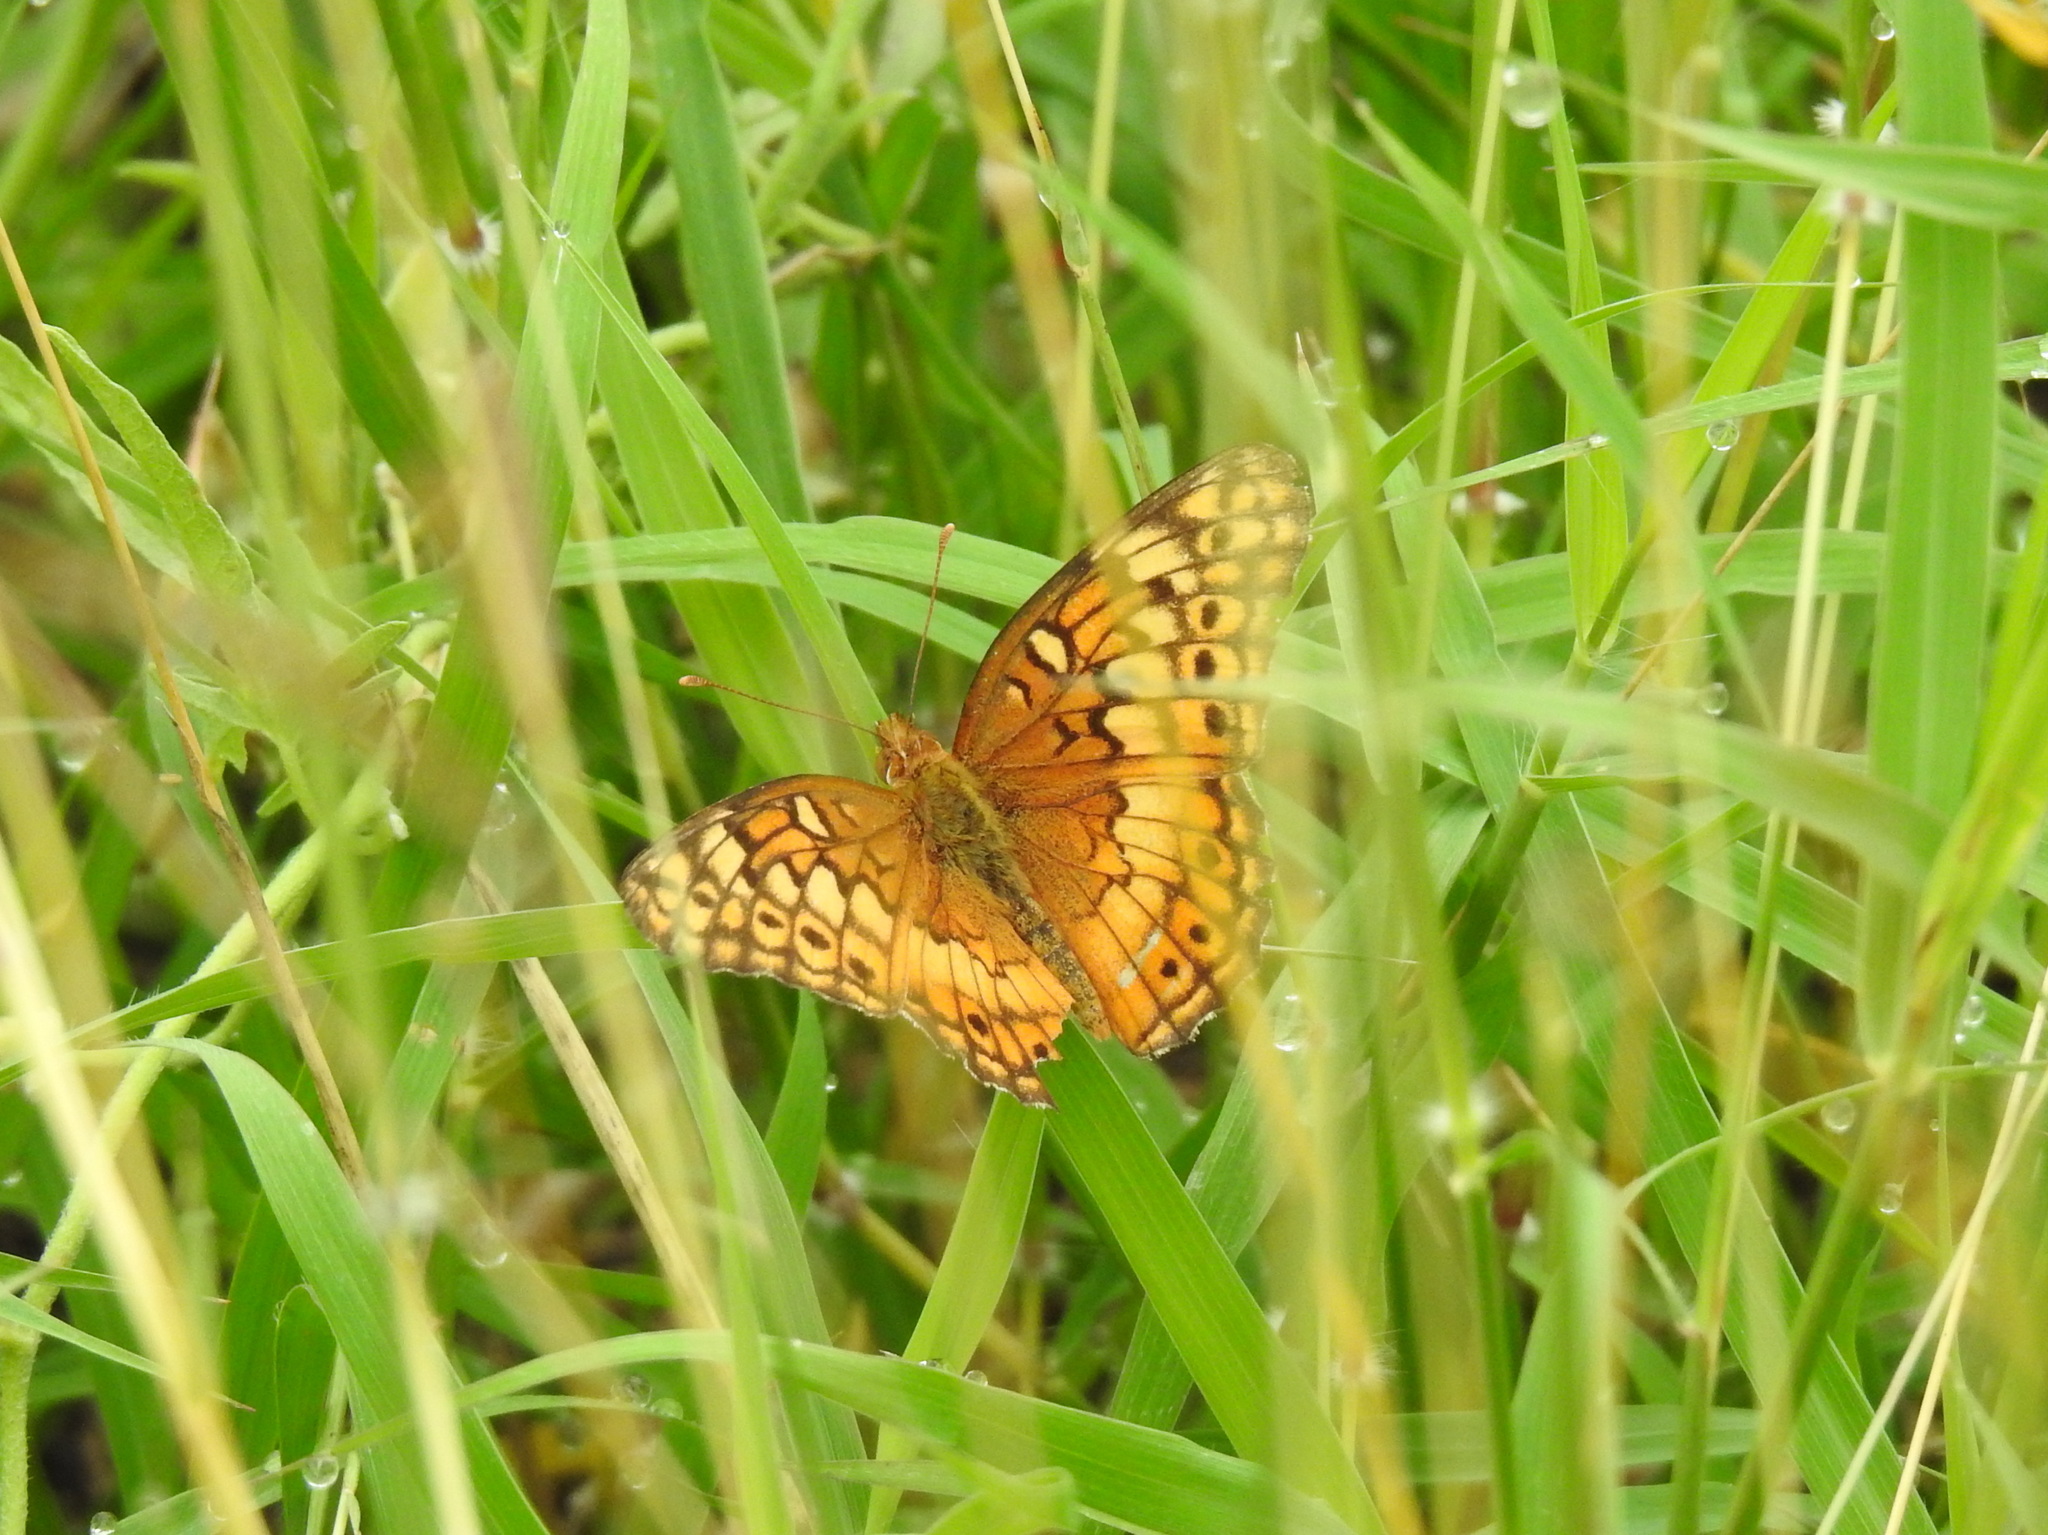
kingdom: Animalia
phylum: Arthropoda
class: Insecta
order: Lepidoptera
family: Nymphalidae
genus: Euptoieta
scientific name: Euptoieta claudia
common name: Variegated fritillary
